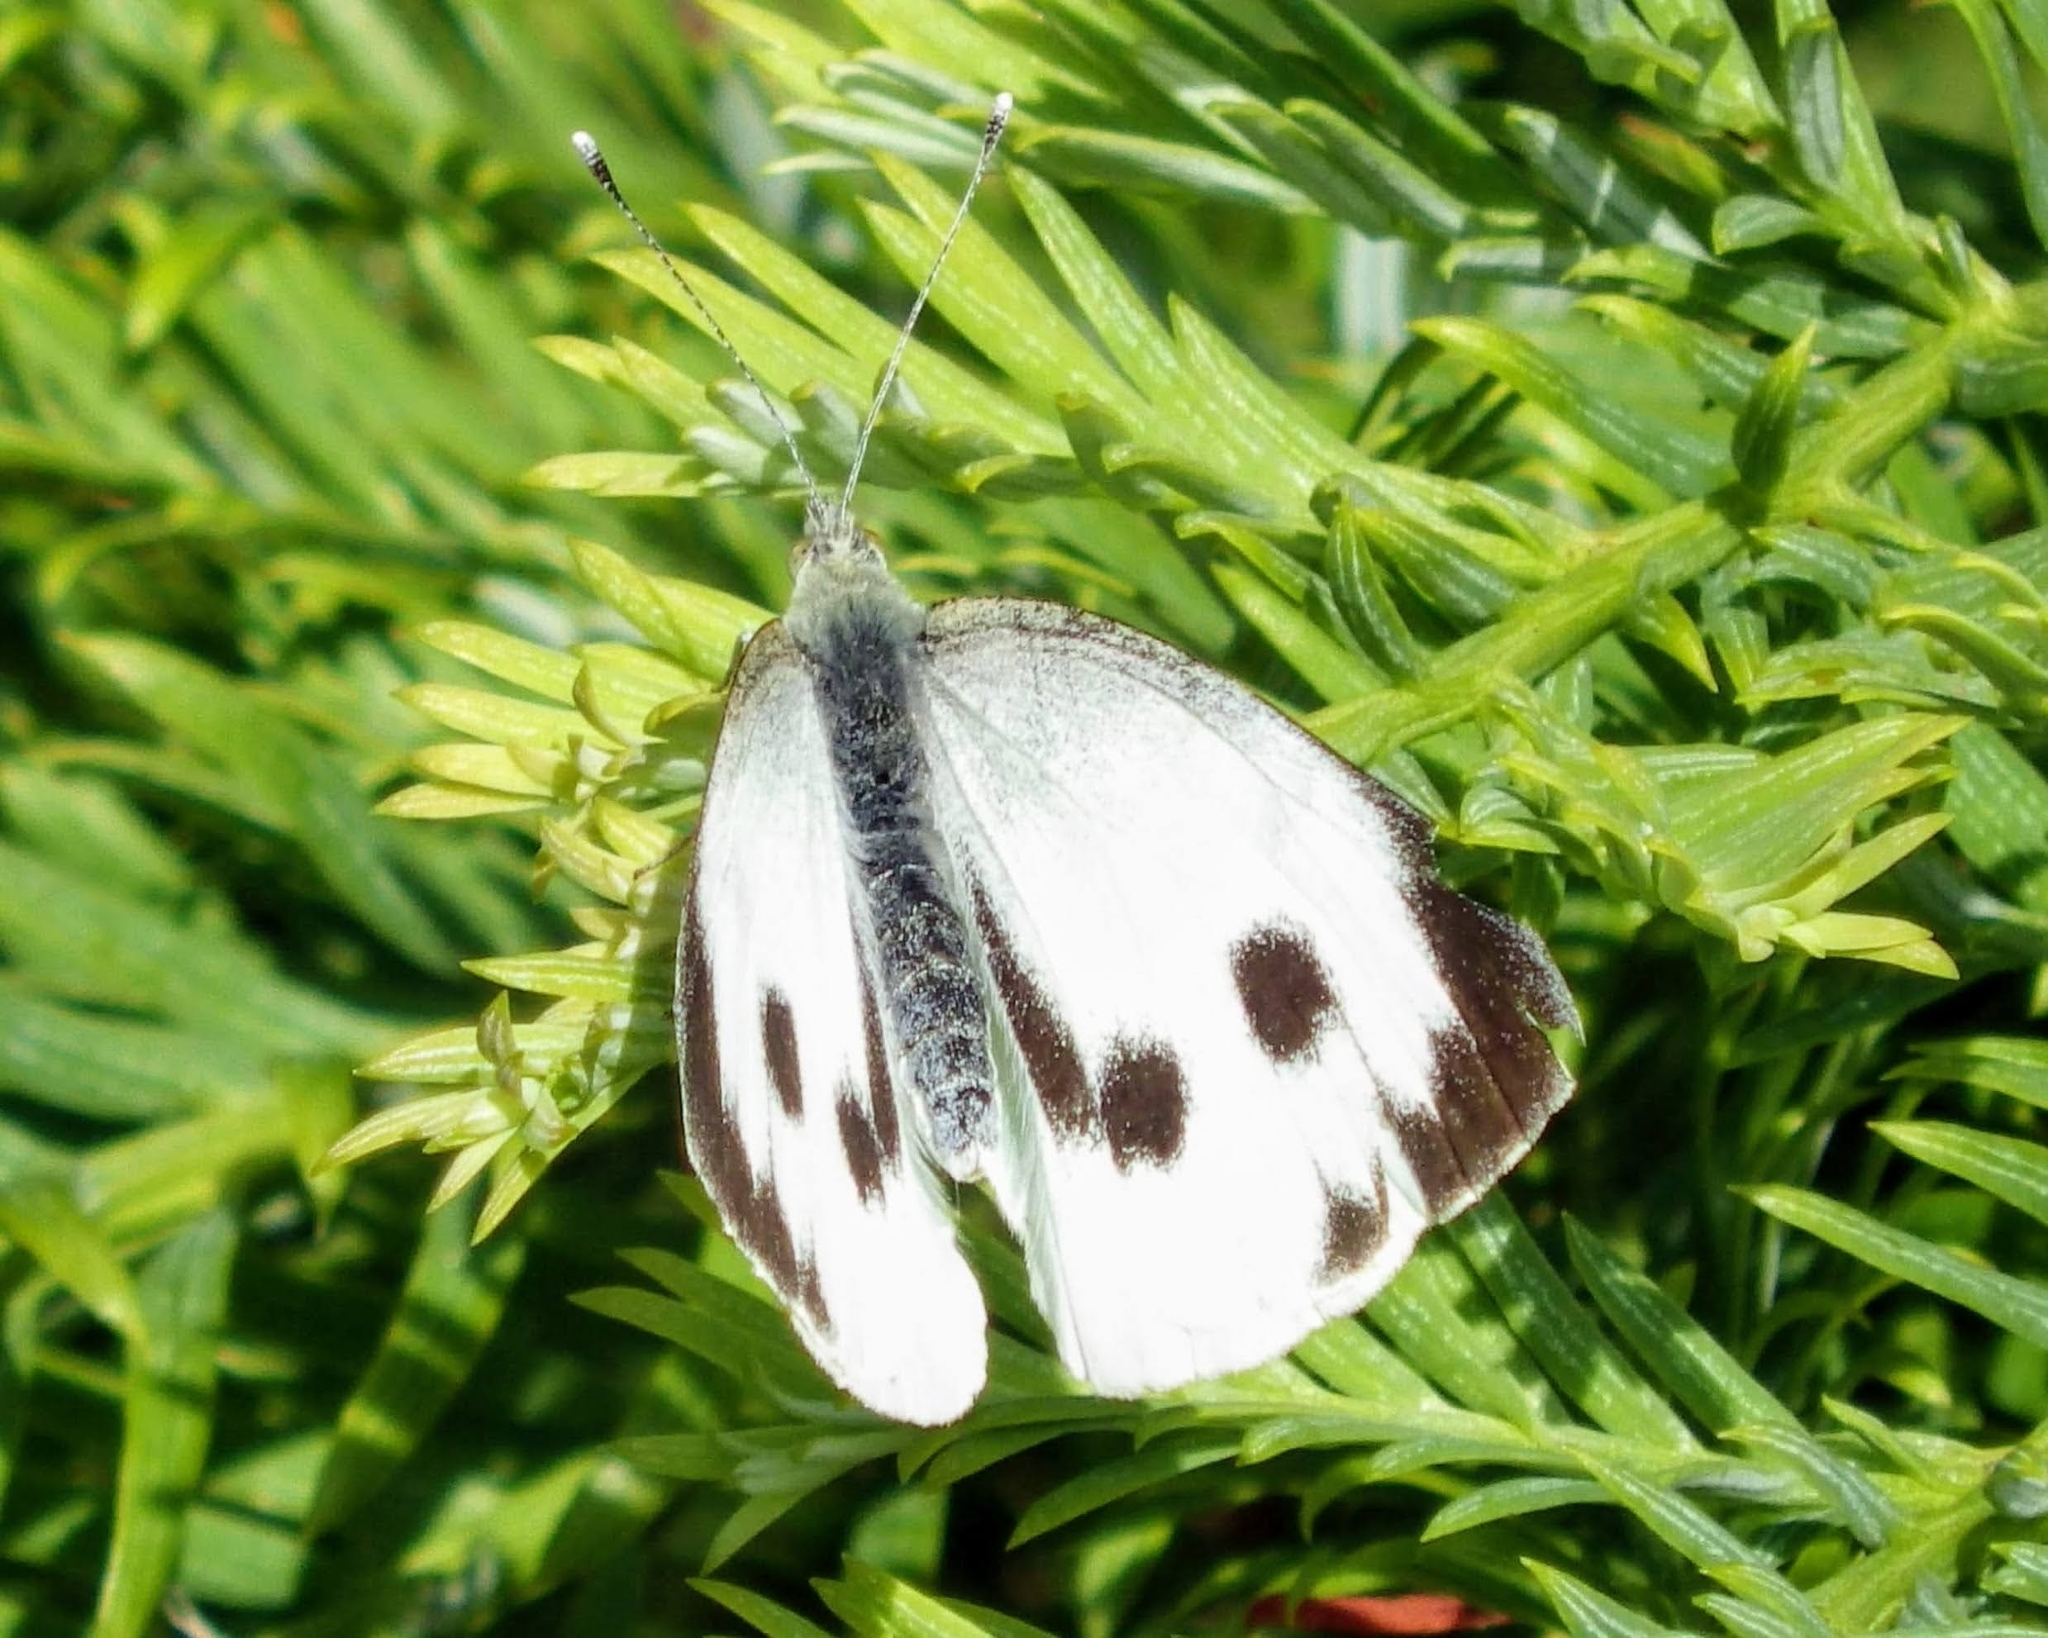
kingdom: Animalia
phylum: Arthropoda
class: Insecta
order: Lepidoptera
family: Pieridae
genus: Pieris
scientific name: Pieris brassicae
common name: Large white
